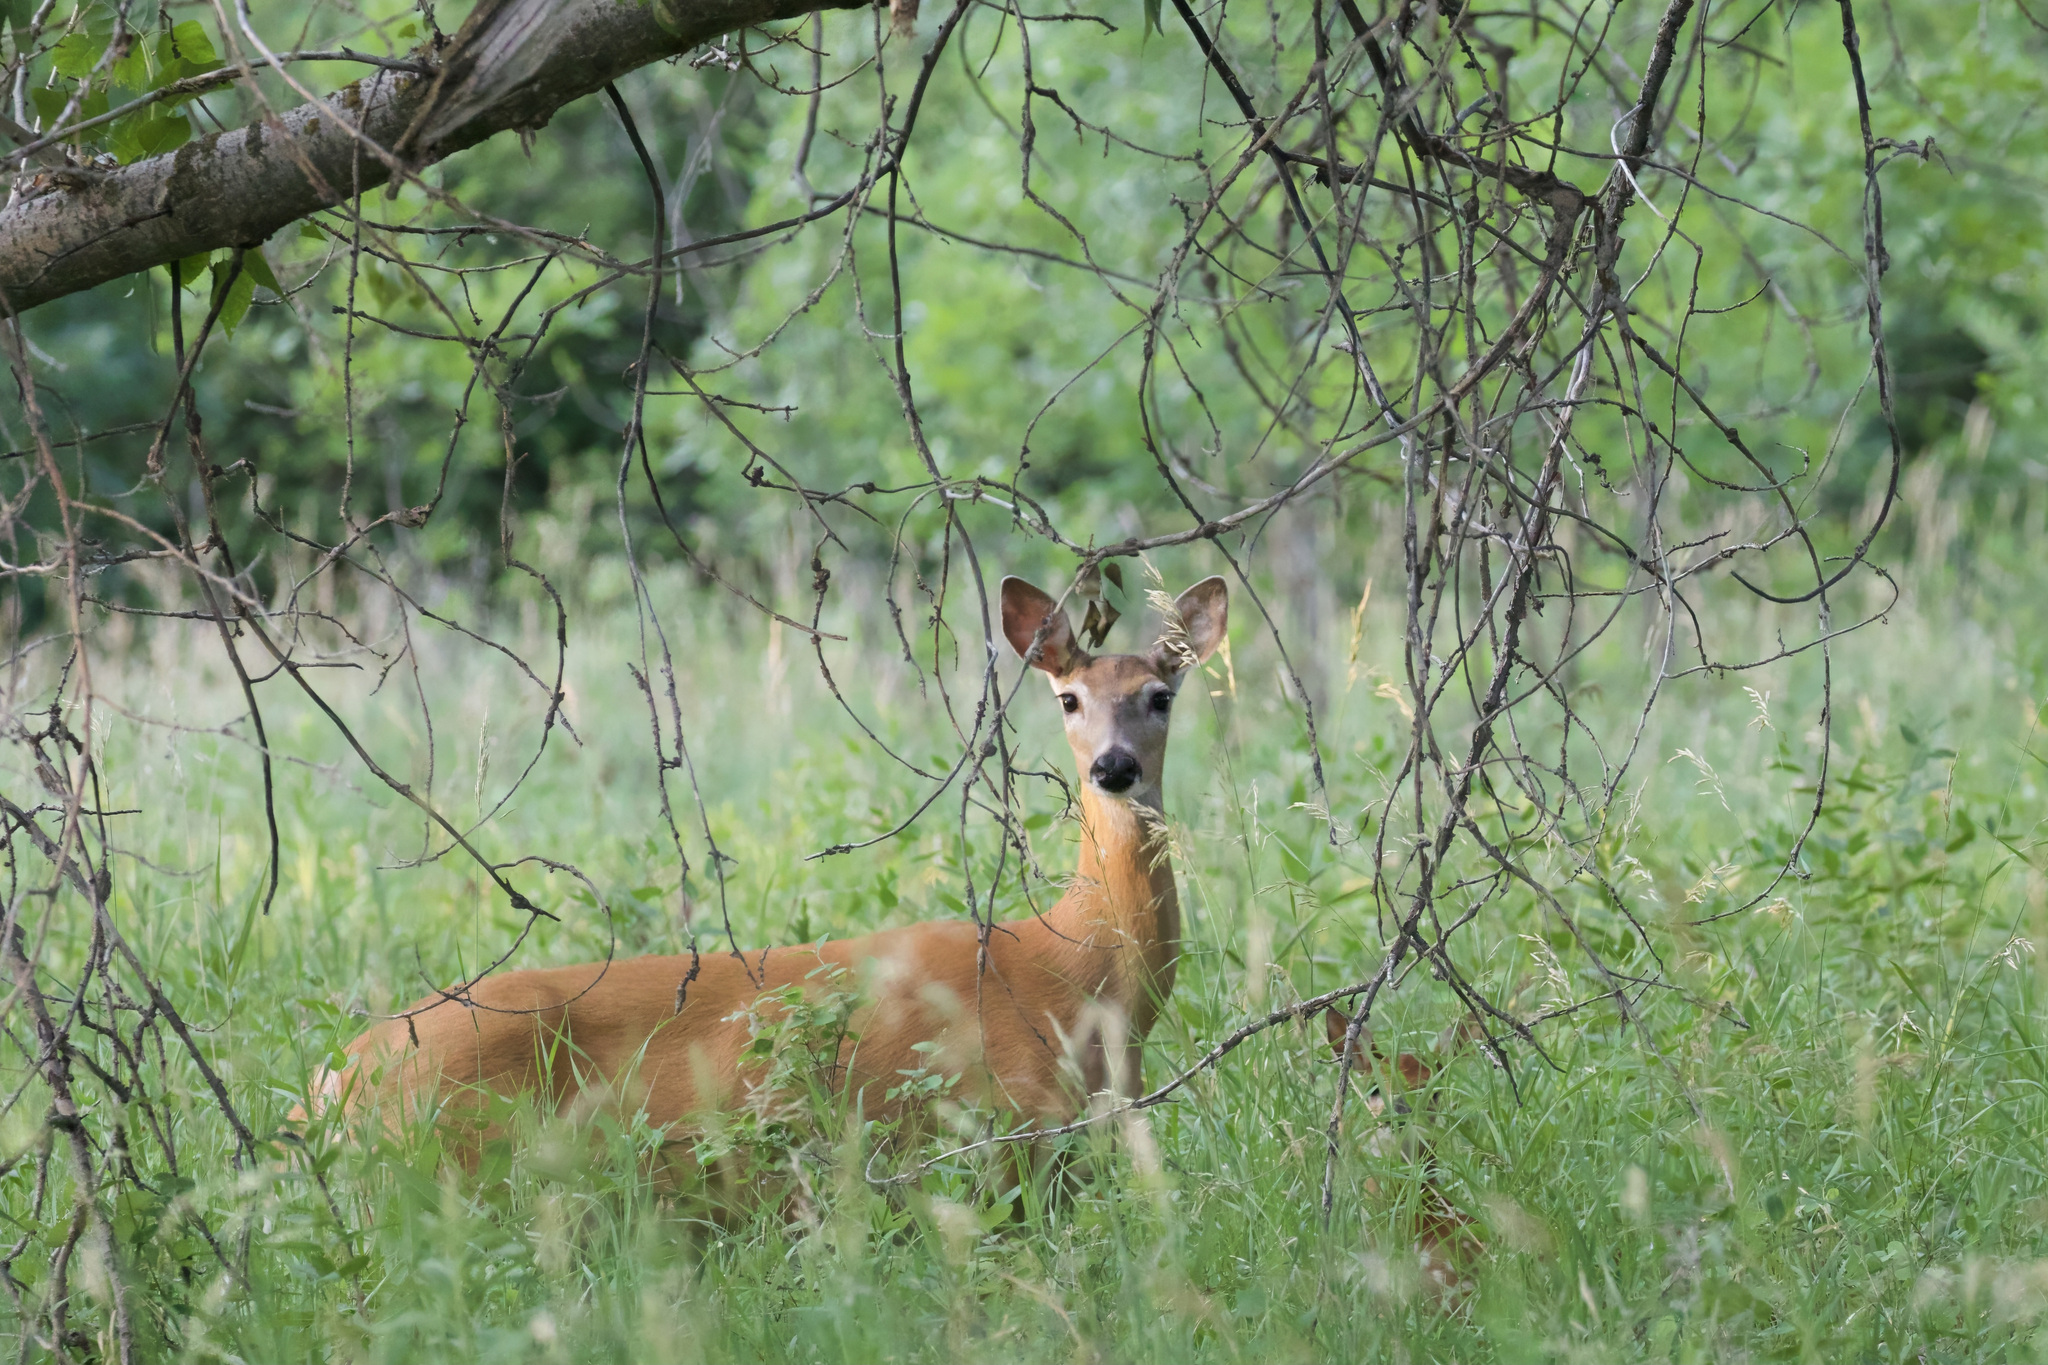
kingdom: Animalia
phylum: Chordata
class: Mammalia
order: Artiodactyla
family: Cervidae
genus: Odocoileus
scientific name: Odocoileus virginianus
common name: White-tailed deer
